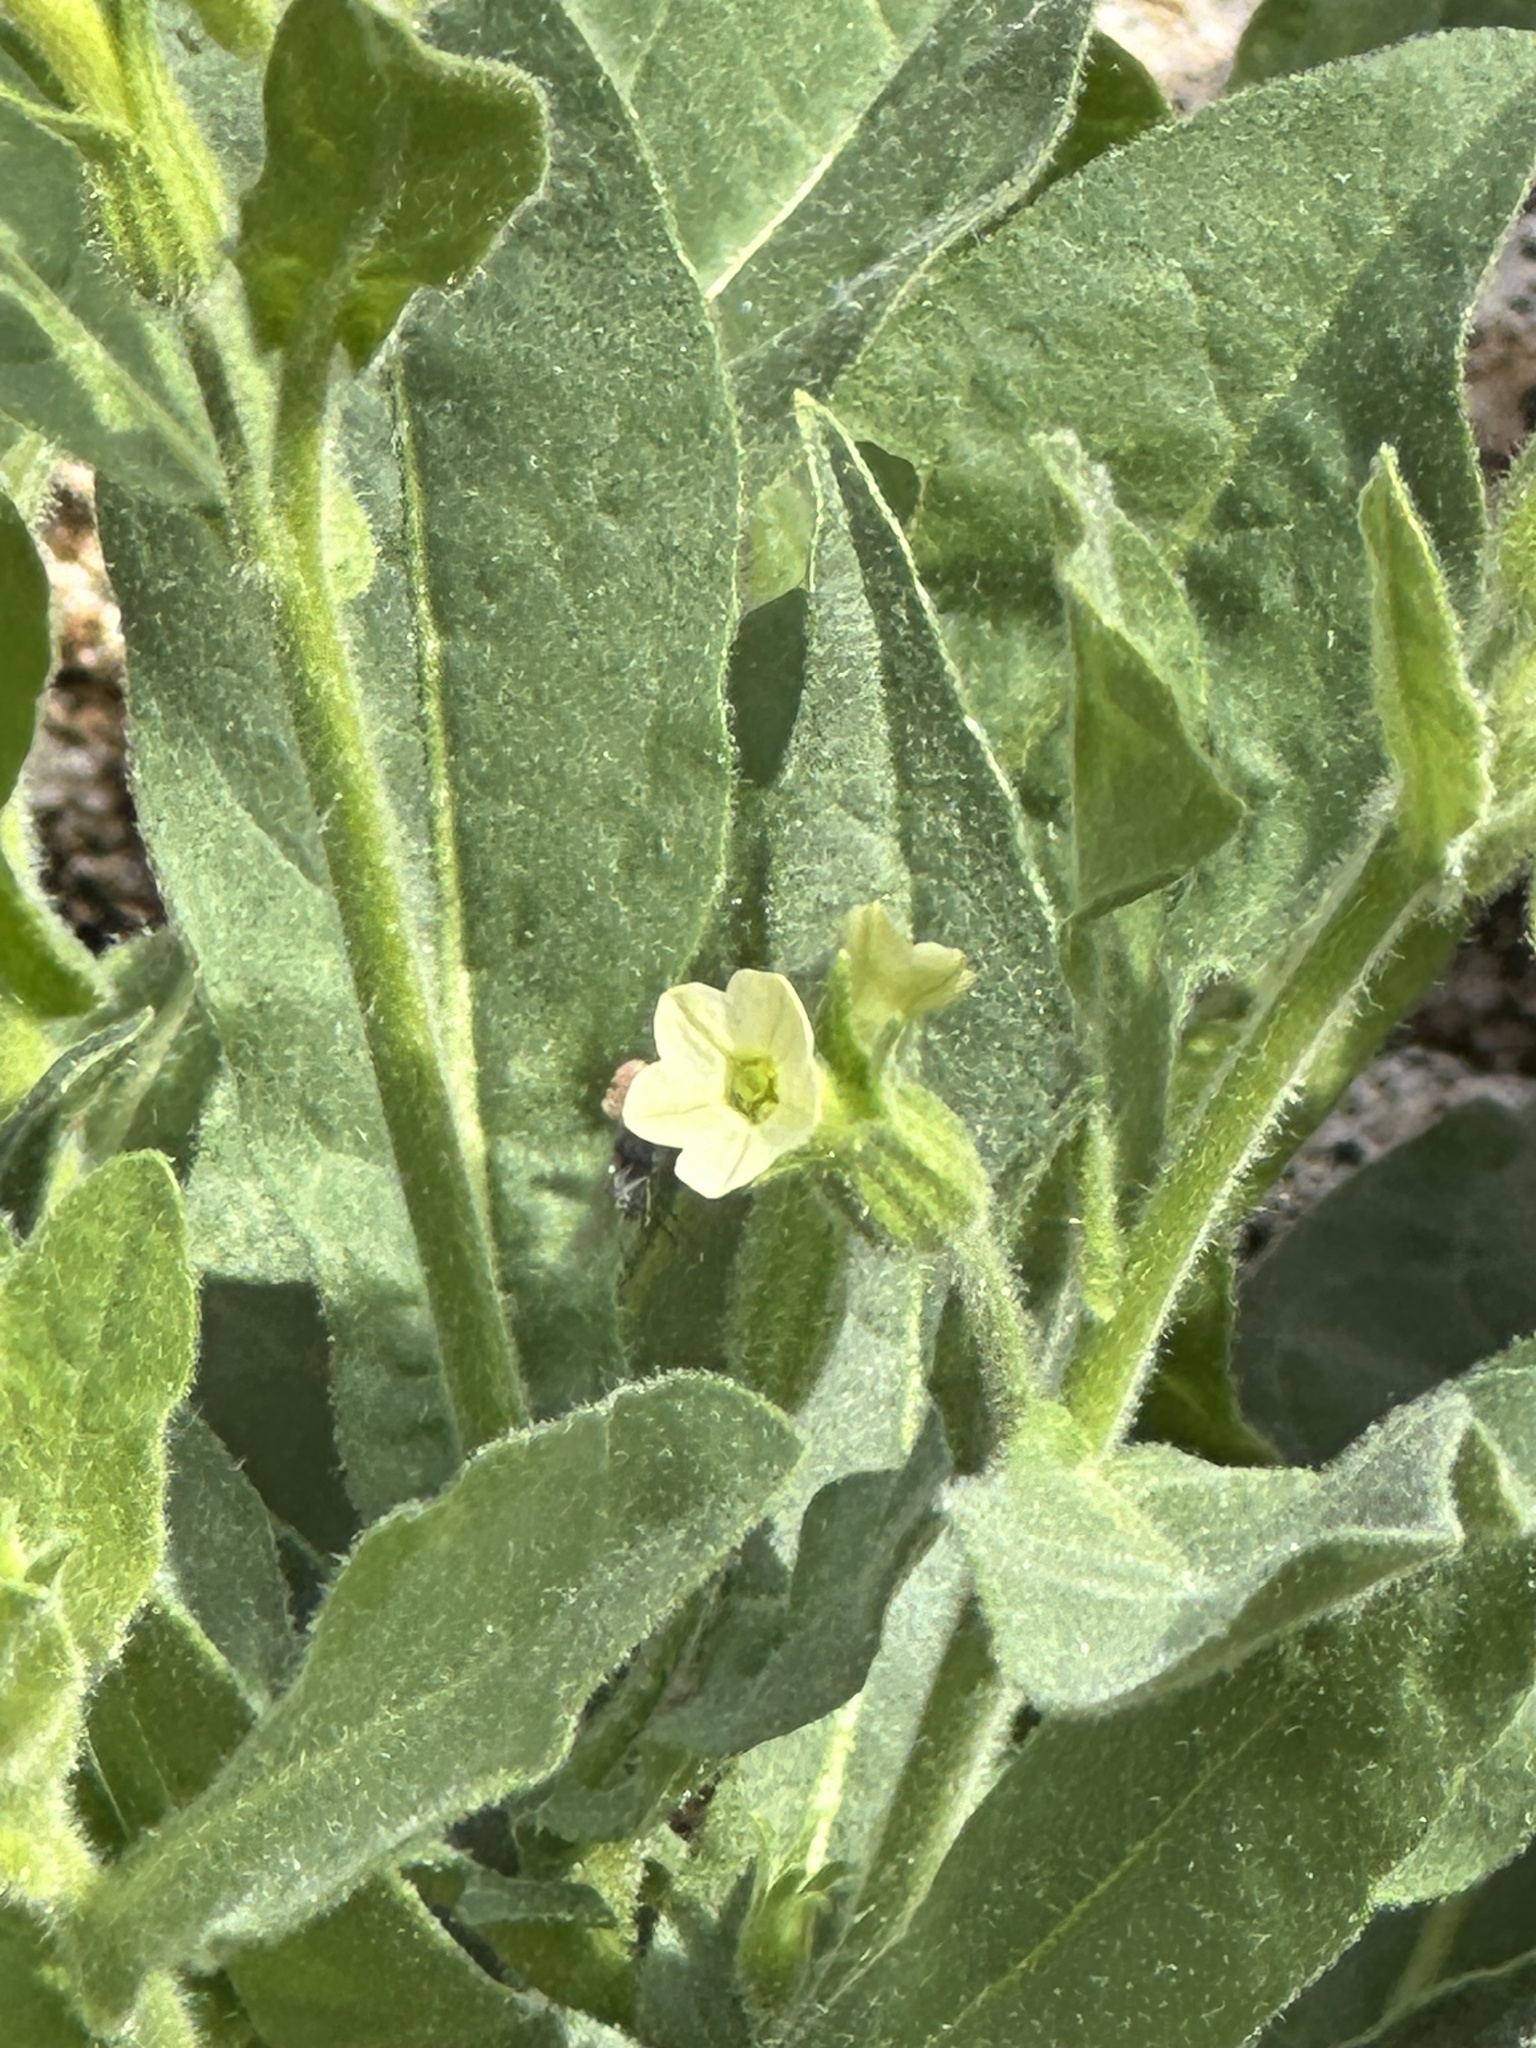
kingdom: Plantae
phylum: Tracheophyta
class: Magnoliopsida
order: Solanales
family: Solanaceae
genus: Nicotiana
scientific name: Nicotiana obtusifolia
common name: Desert tobacco
